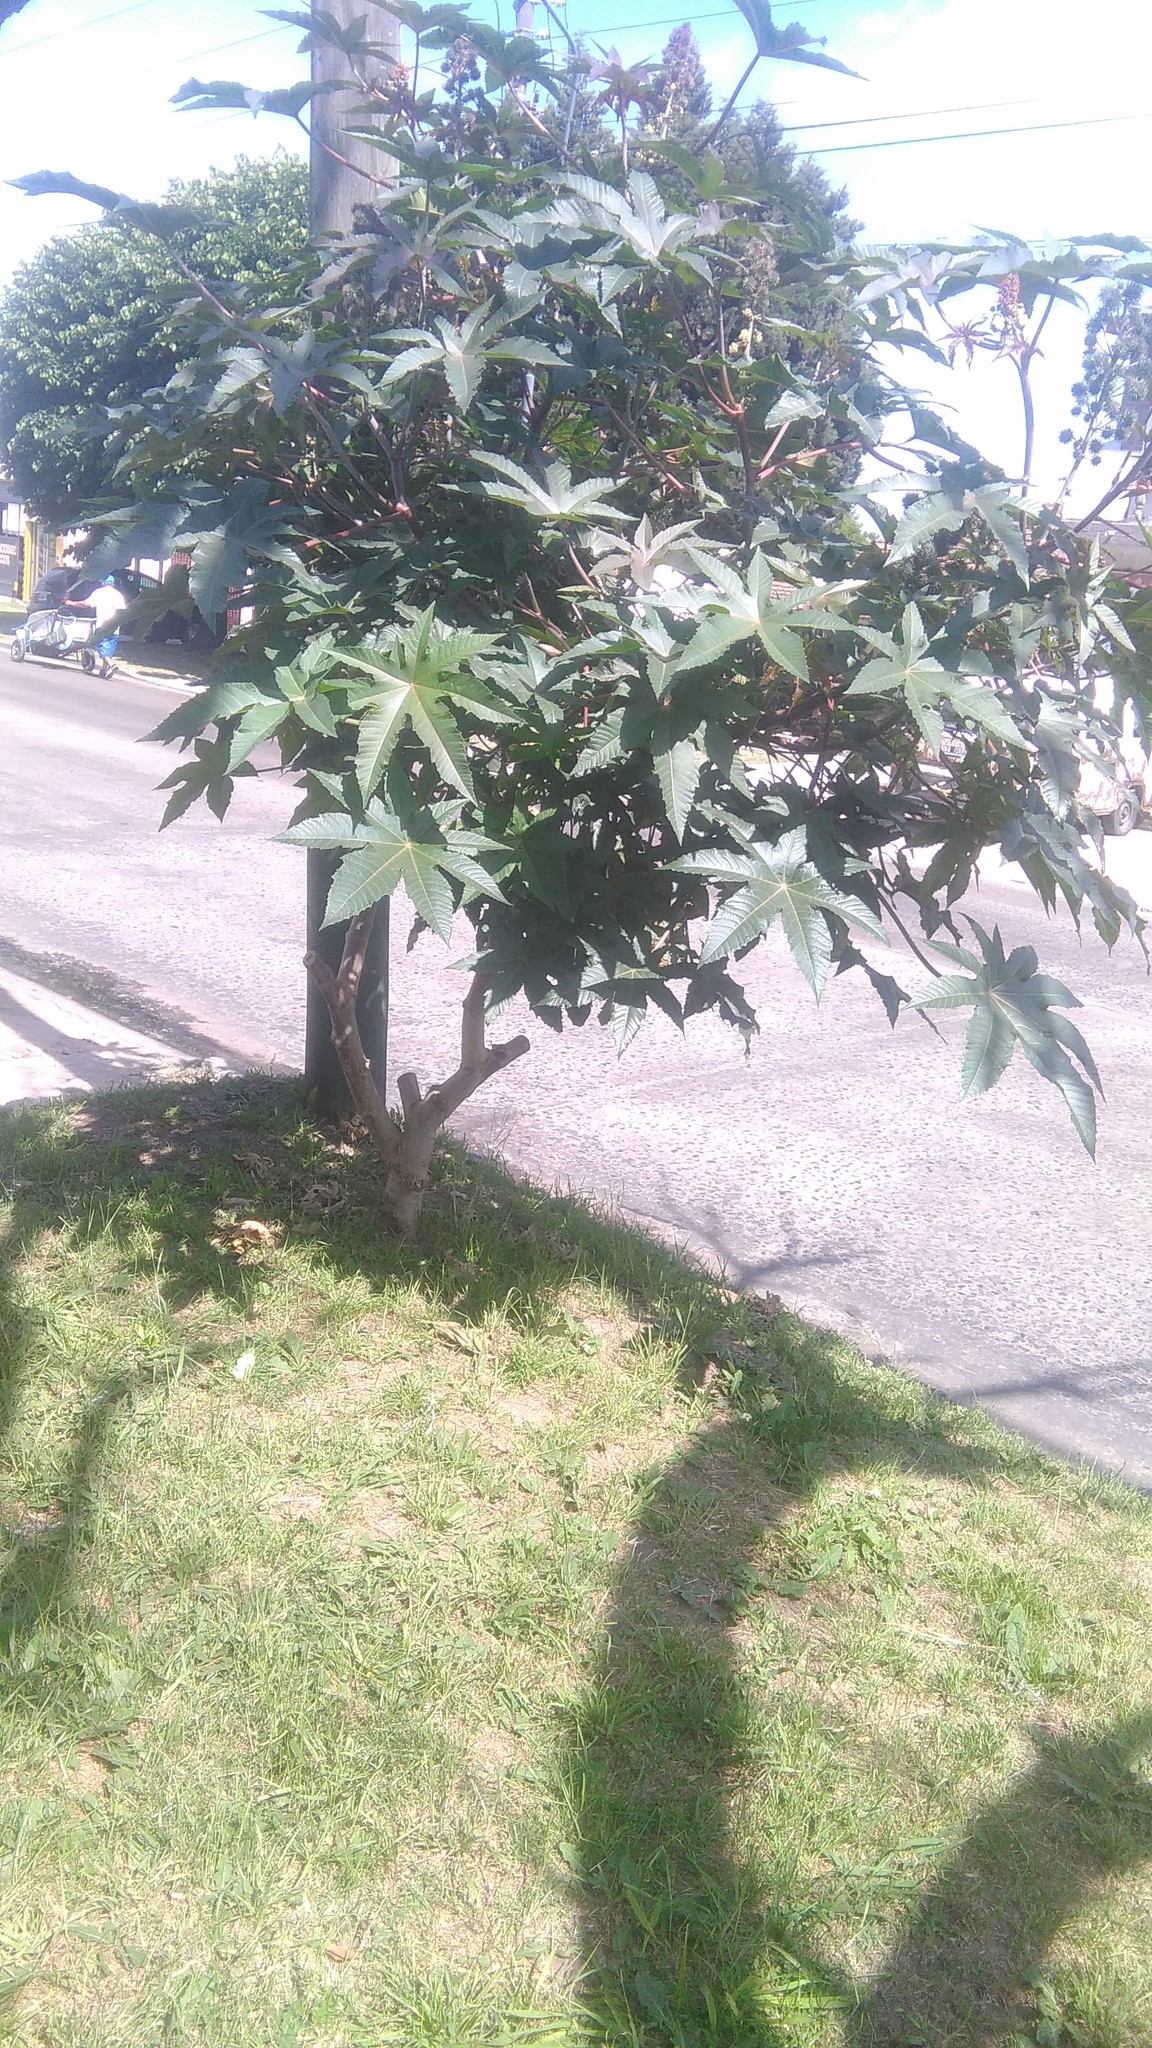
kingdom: Plantae
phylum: Tracheophyta
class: Magnoliopsida
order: Malpighiales
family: Euphorbiaceae
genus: Ricinus
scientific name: Ricinus communis
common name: Castor-oil-plant
